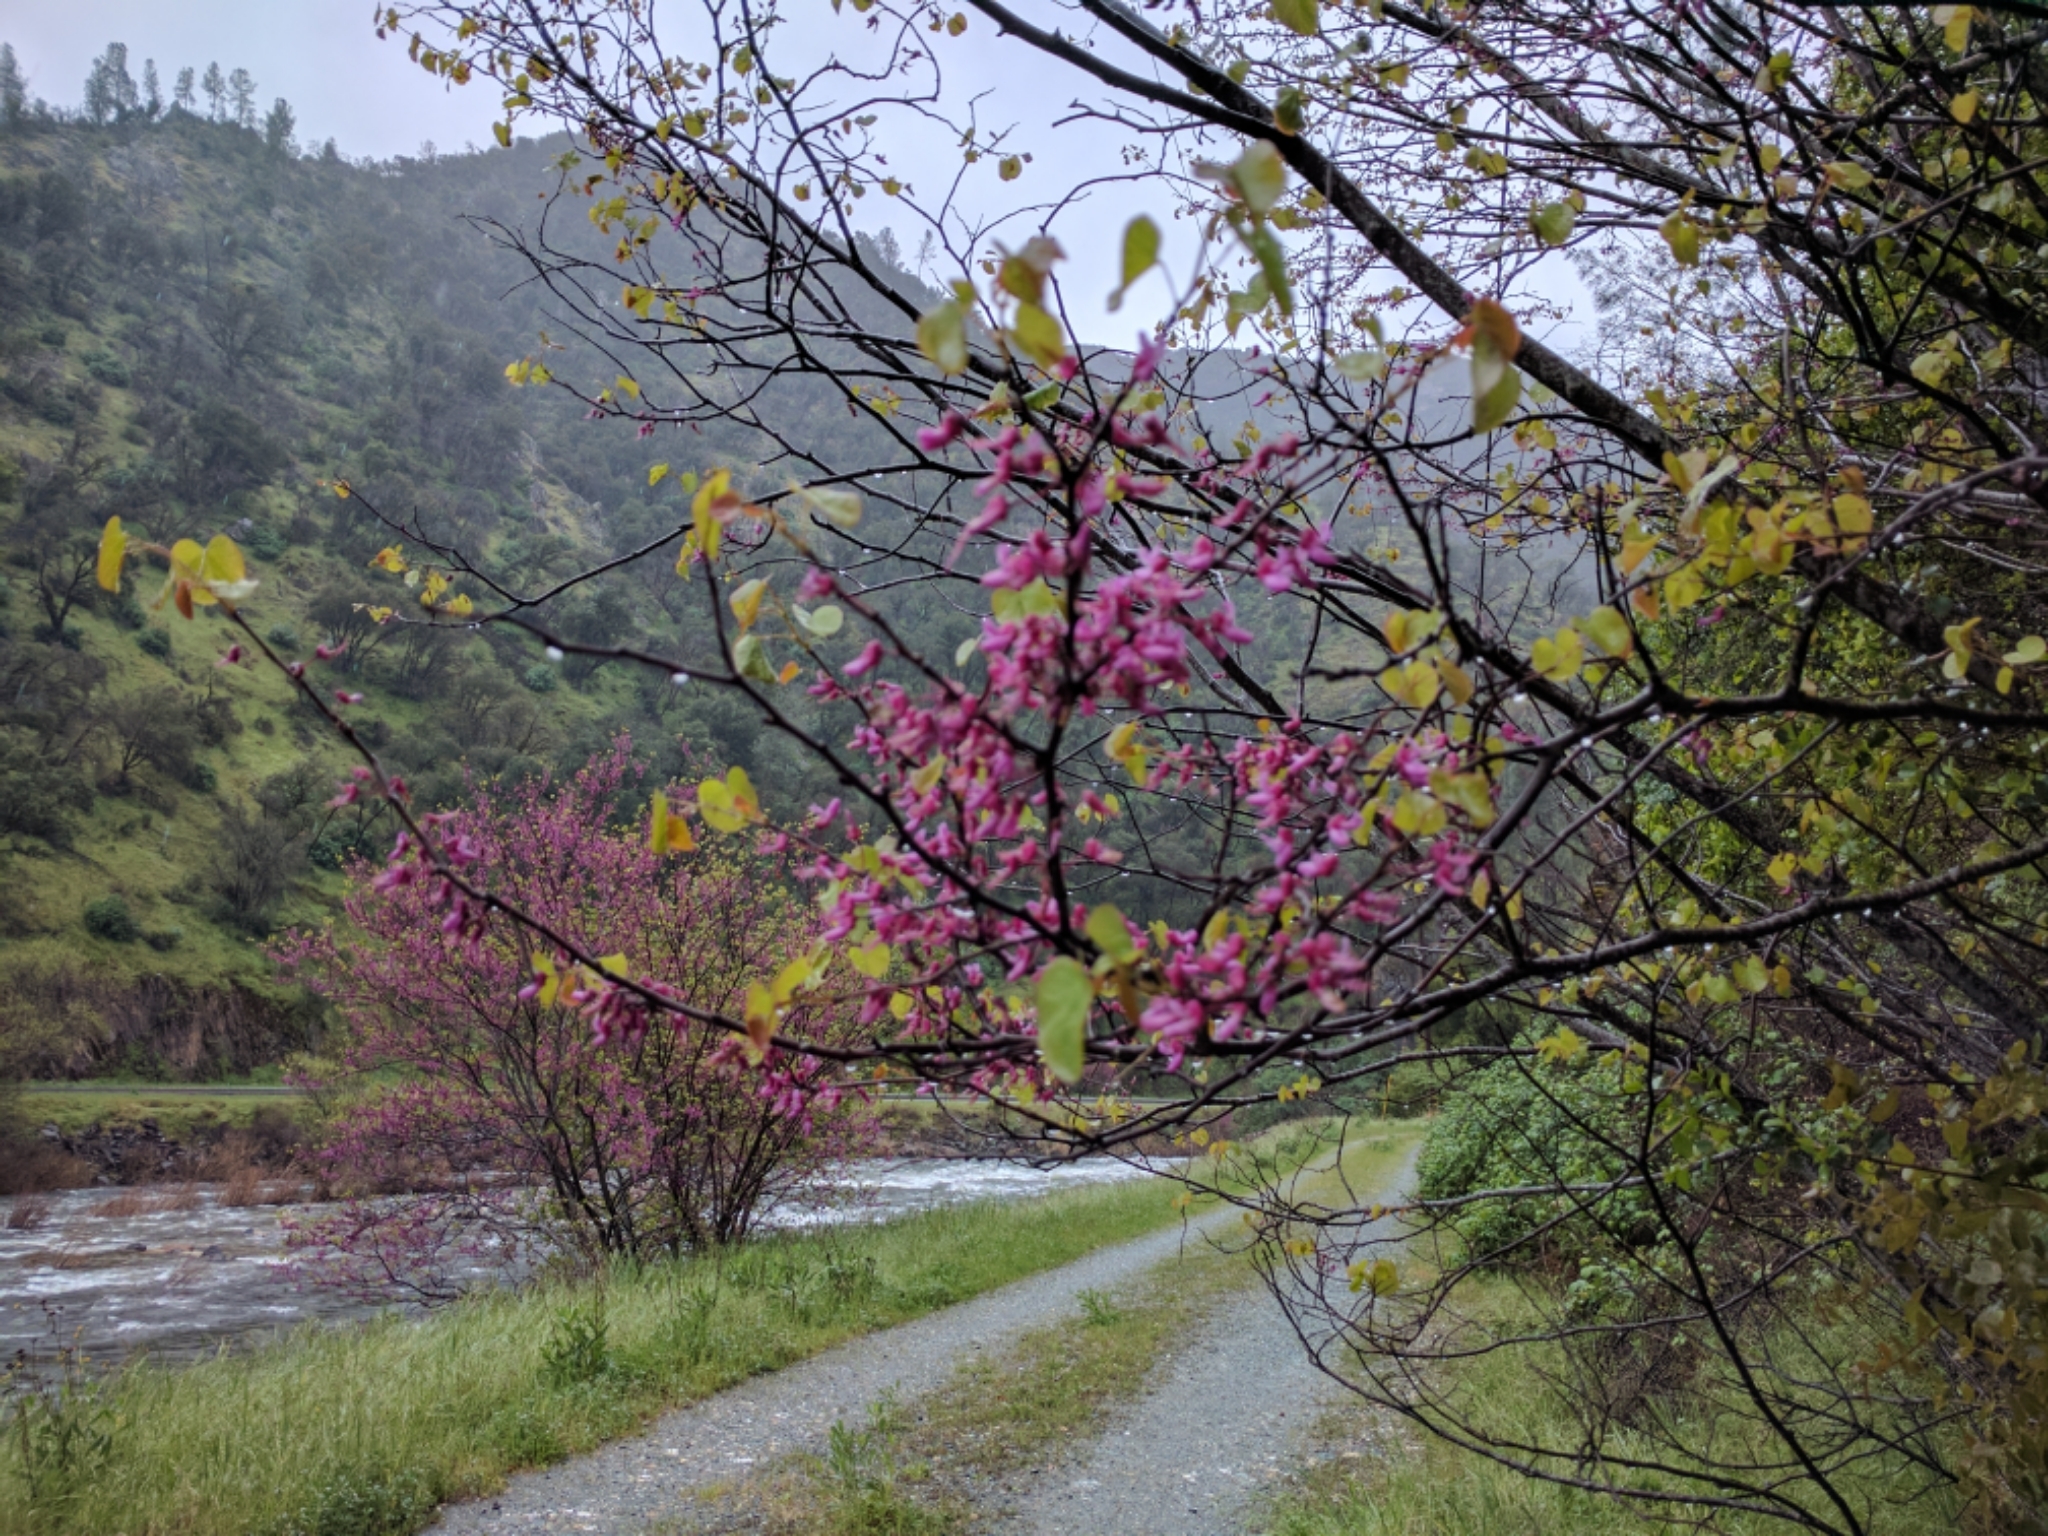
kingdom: Plantae
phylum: Tracheophyta
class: Magnoliopsida
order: Fabales
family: Fabaceae
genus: Cercis
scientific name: Cercis occidentalis
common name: California redbud
